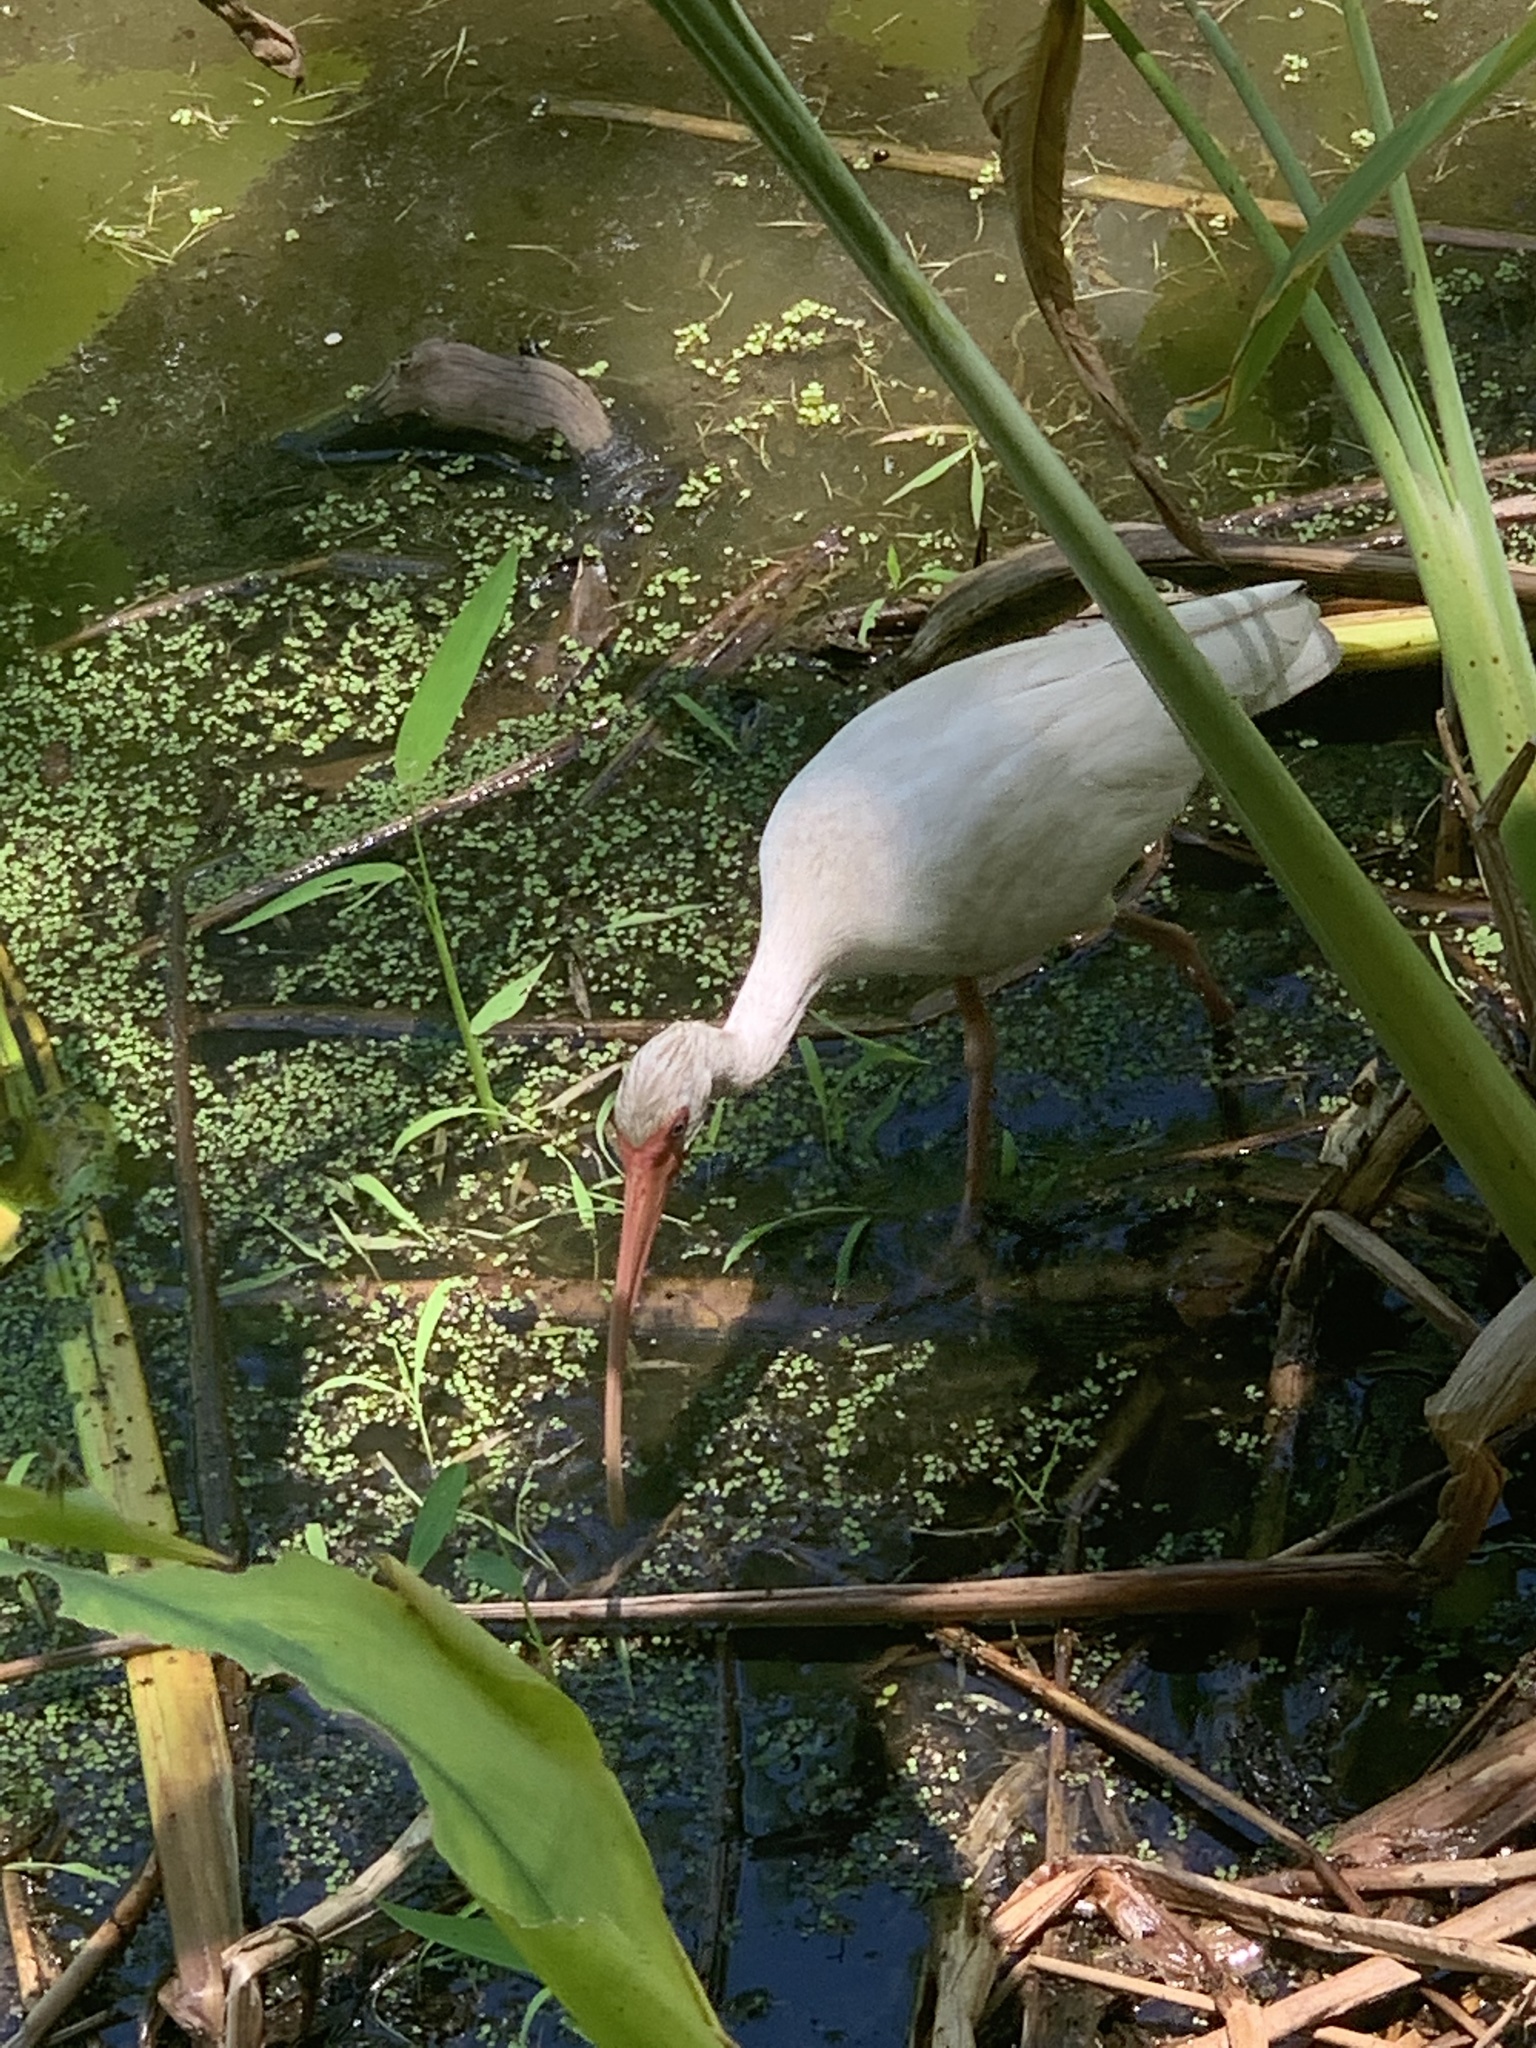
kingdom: Animalia
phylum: Chordata
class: Aves
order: Pelecaniformes
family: Threskiornithidae
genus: Eudocimus
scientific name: Eudocimus albus
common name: White ibis
